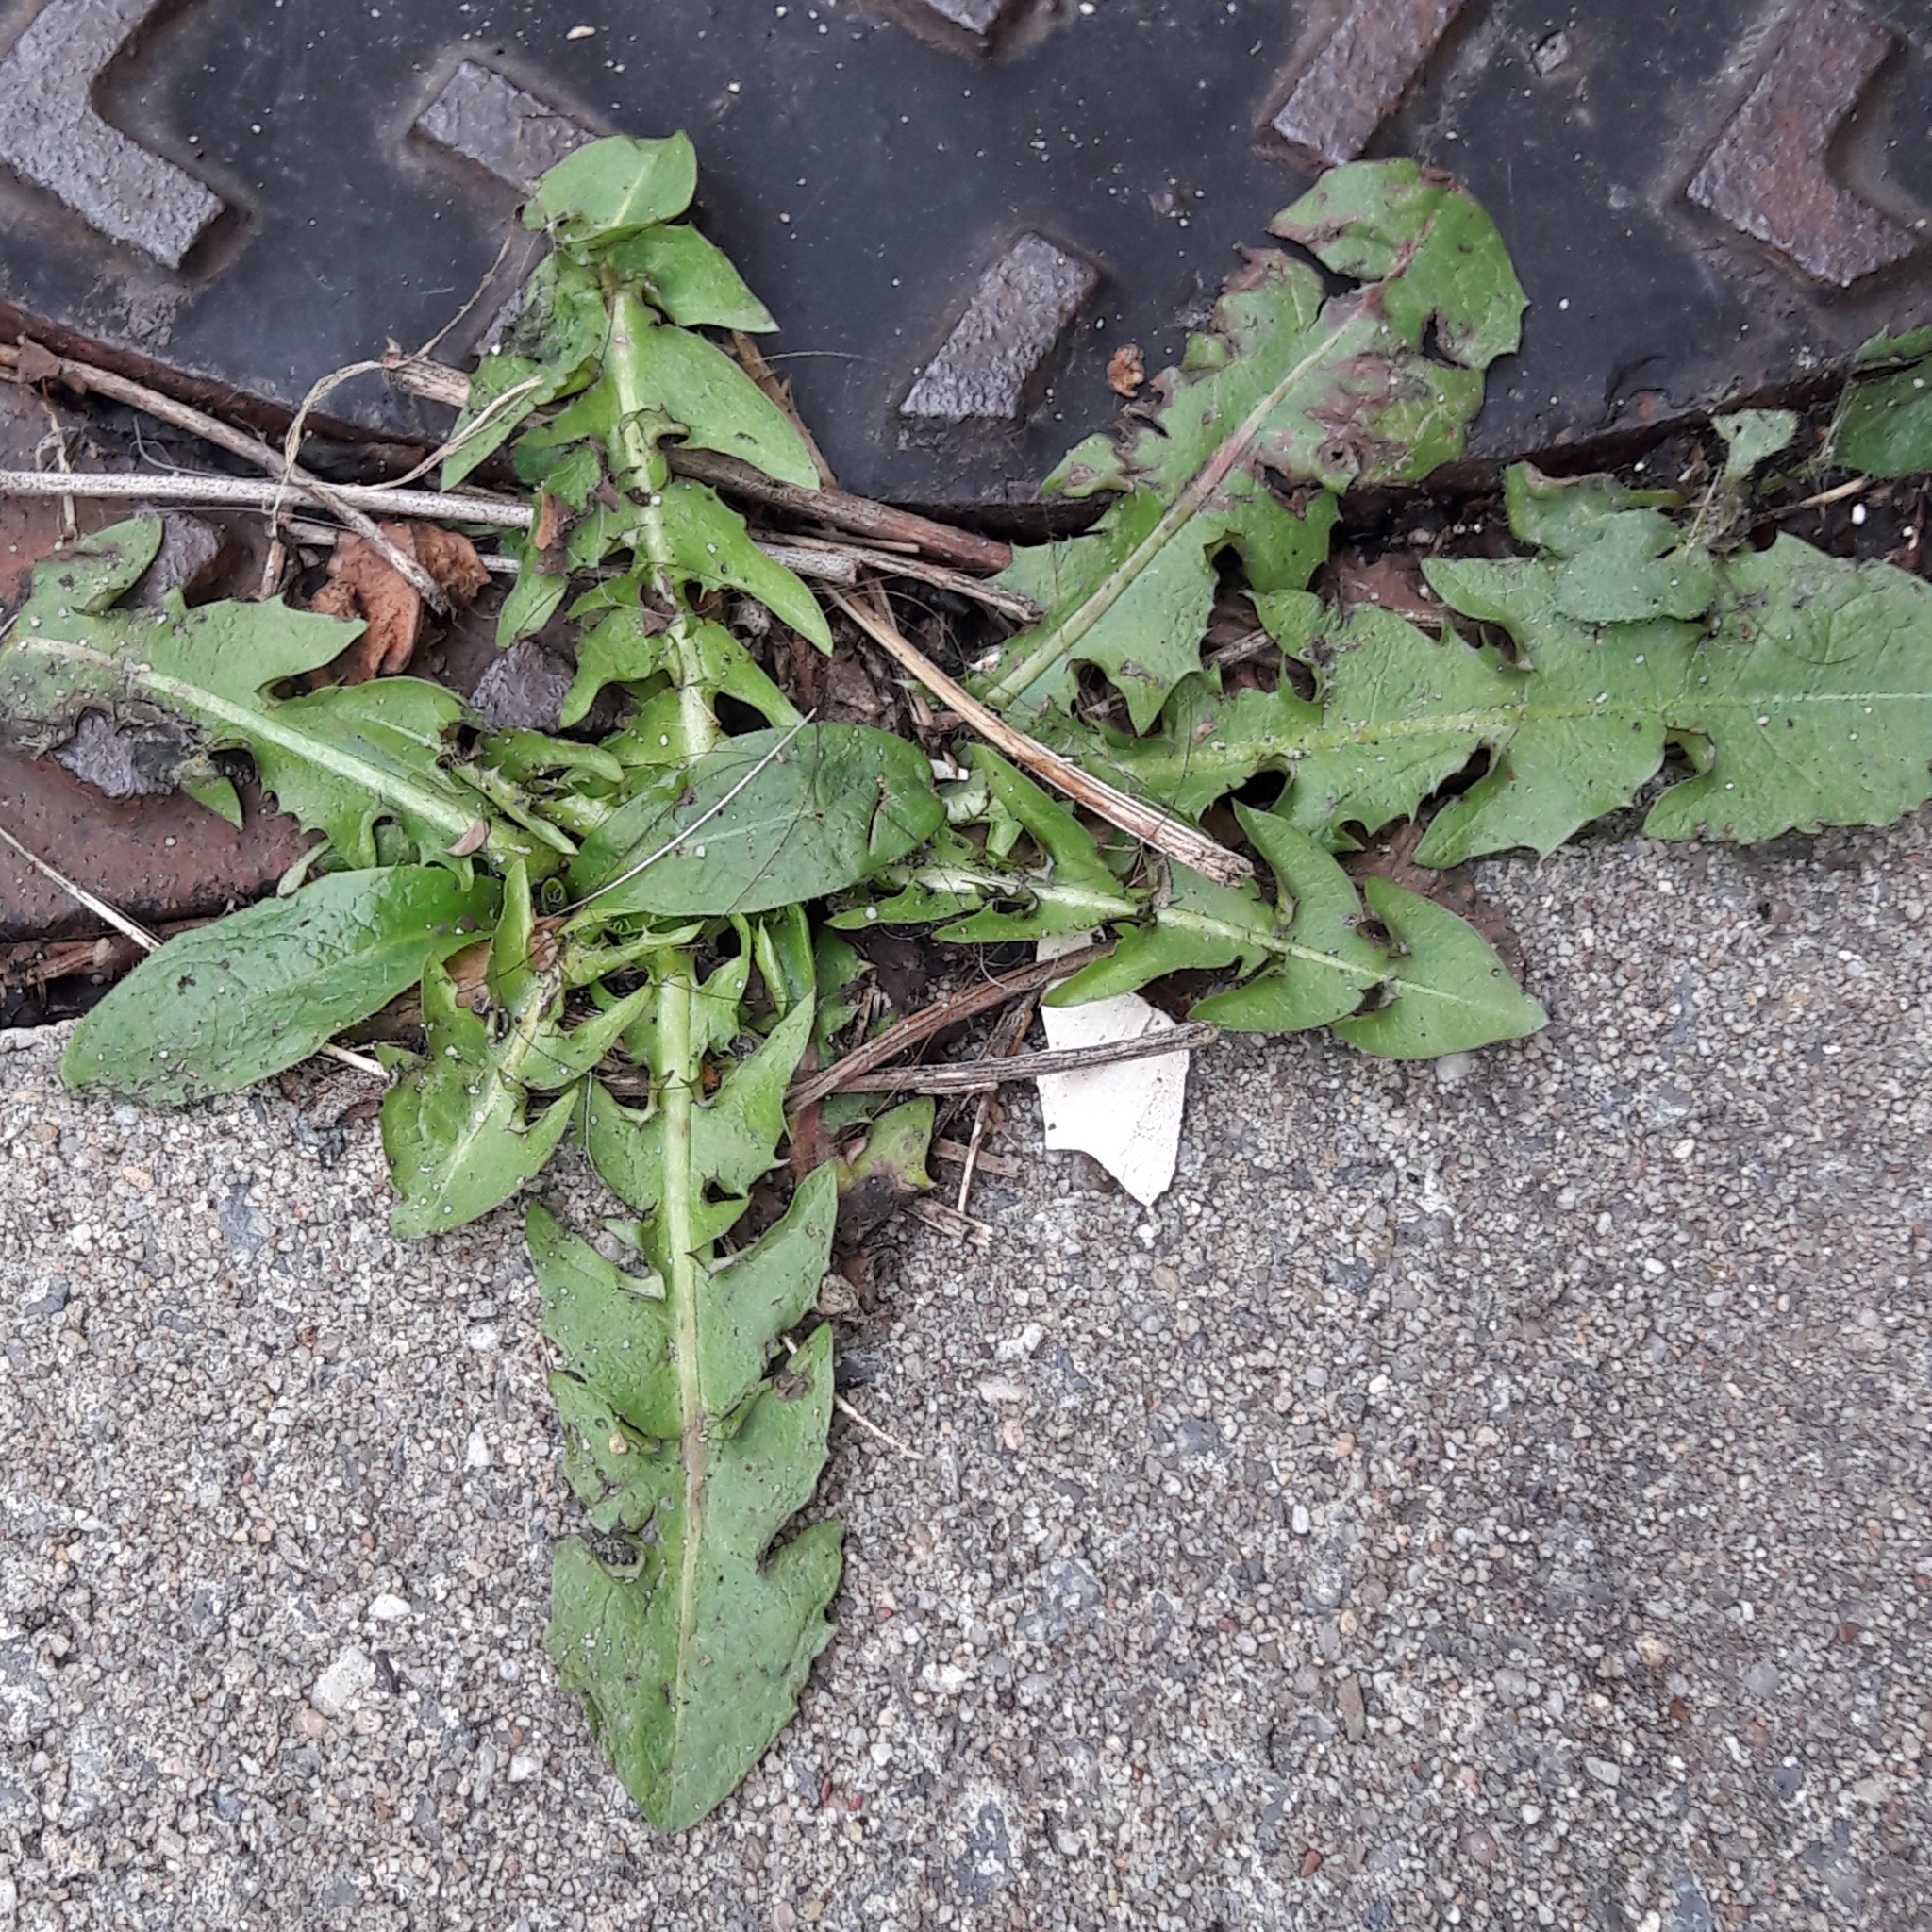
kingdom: Plantae
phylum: Tracheophyta
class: Magnoliopsida
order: Asterales
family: Asteraceae
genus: Taraxacum
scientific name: Taraxacum officinale
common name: Common dandelion
